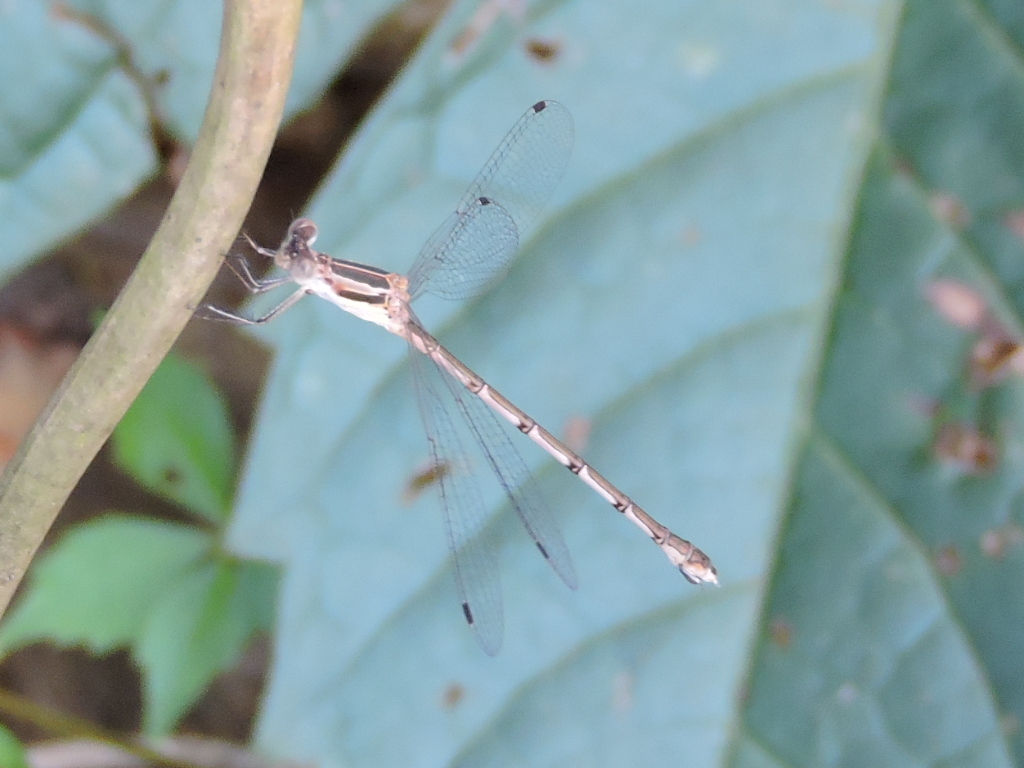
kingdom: Animalia
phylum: Arthropoda
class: Insecta
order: Odonata
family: Lestidae
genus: Lestes
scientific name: Lestes australis
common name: Southern spreadwing
